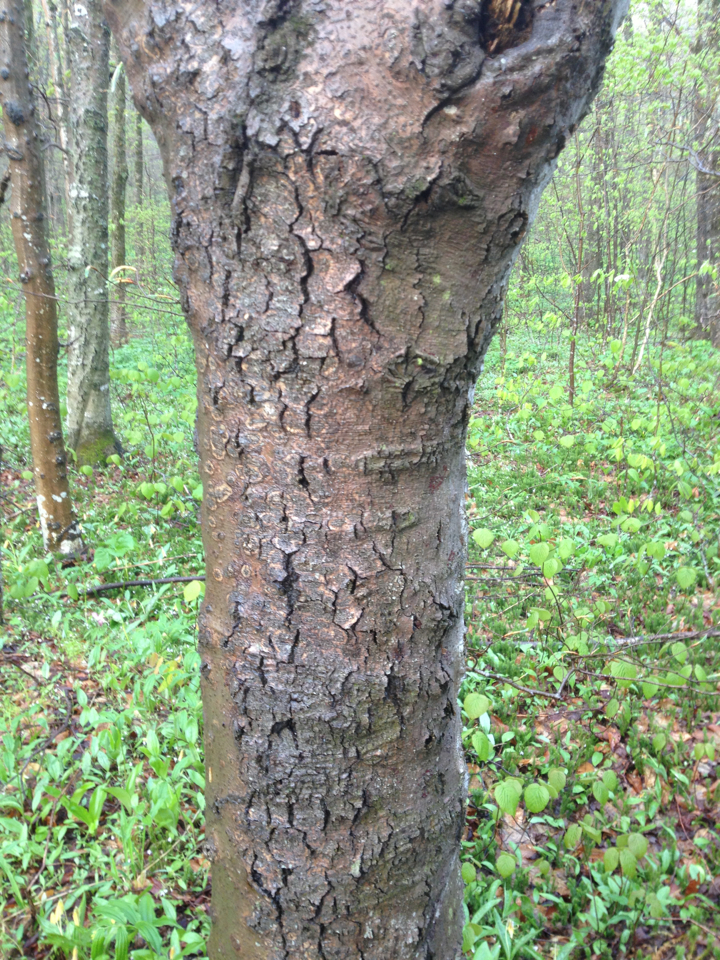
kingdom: Plantae
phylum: Tracheophyta
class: Magnoliopsida
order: Fagales
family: Fagaceae
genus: Fagus
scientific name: Fagus grandifolia
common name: American beech
